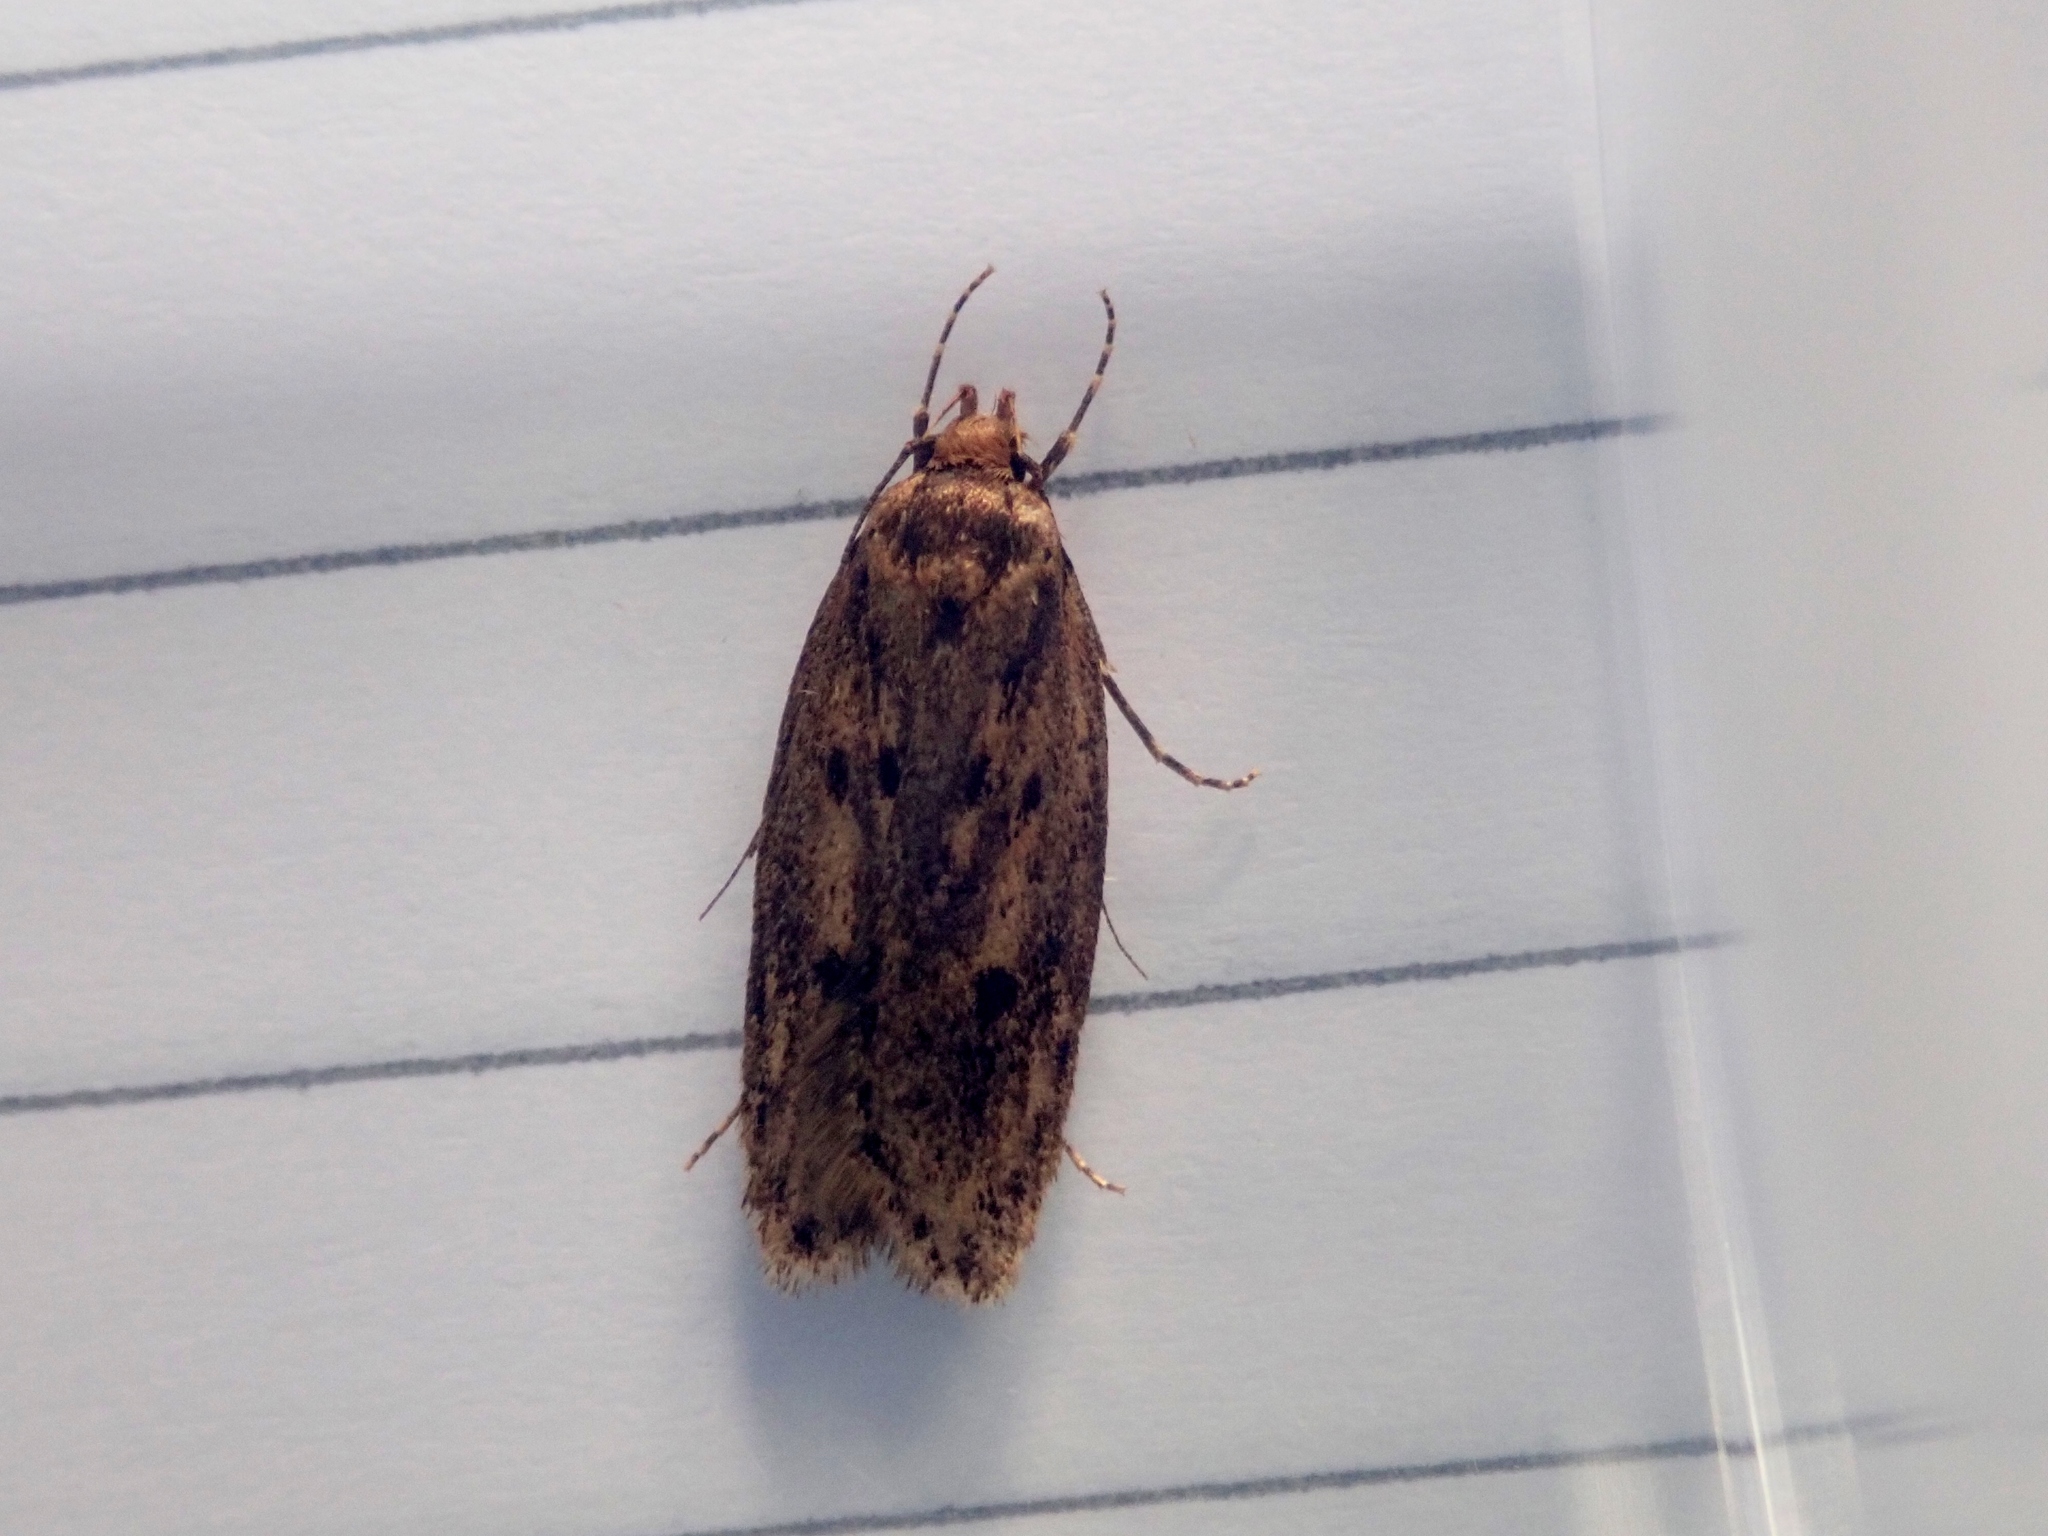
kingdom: Animalia
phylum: Arthropoda
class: Insecta
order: Lepidoptera
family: Oecophoridae
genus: Hofmannophila
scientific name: Hofmannophila pseudospretella
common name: Brown house moth
